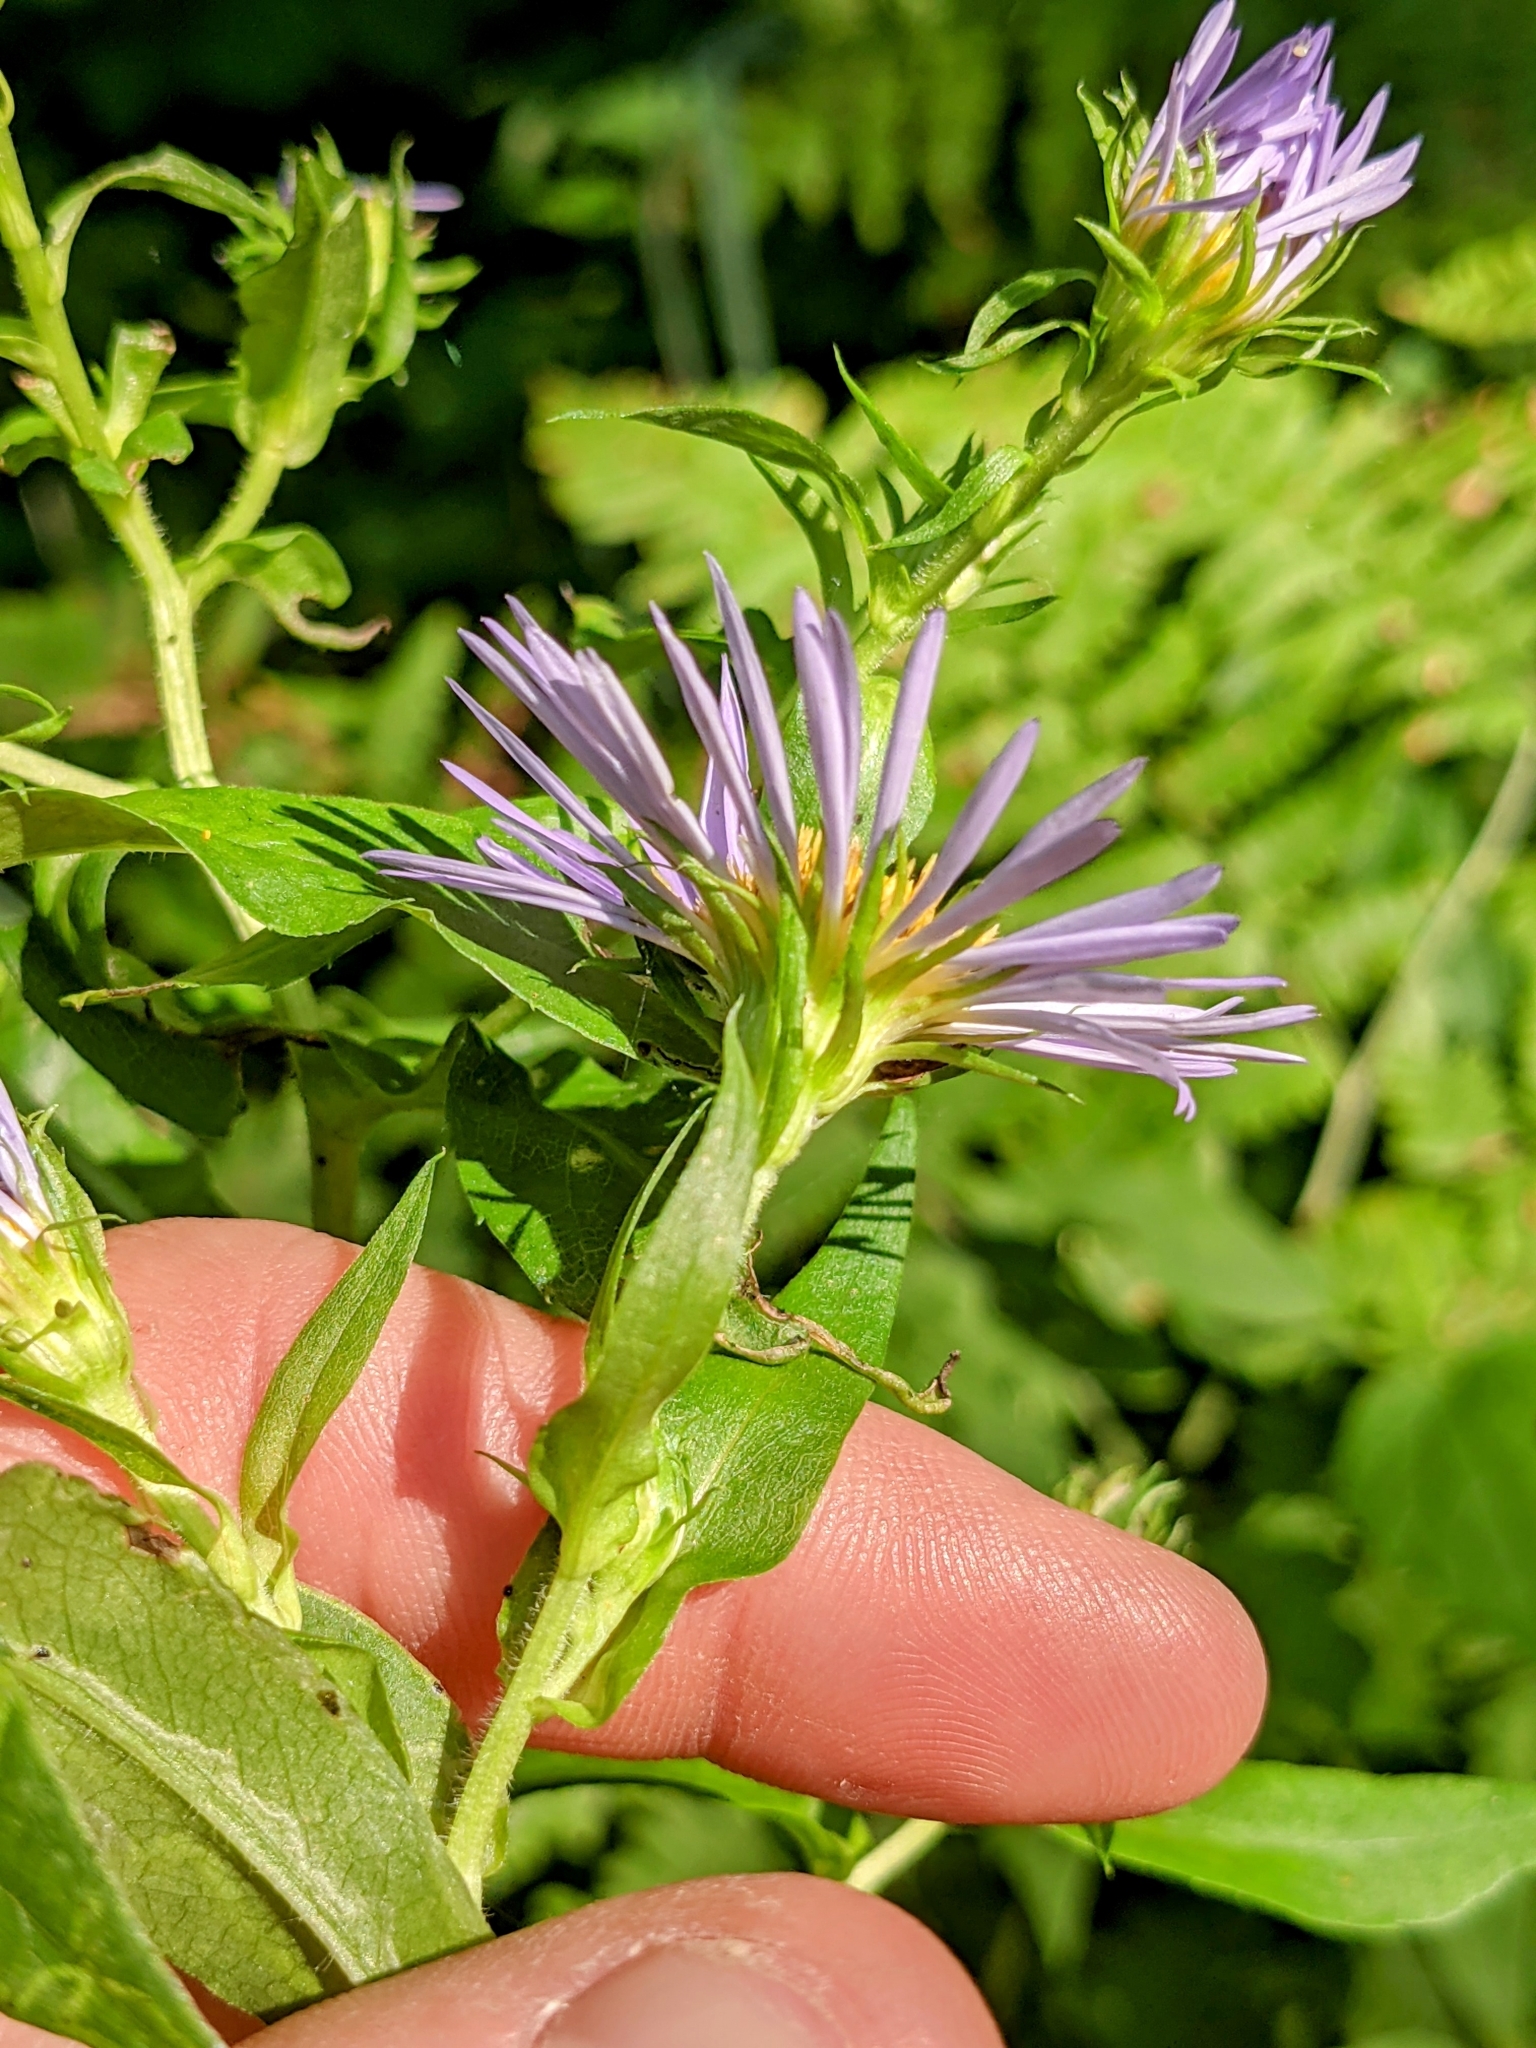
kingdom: Plantae
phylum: Tracheophyta
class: Magnoliopsida
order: Asterales
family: Asteraceae
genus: Symphyotrichum
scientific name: Symphyotrichum puniceum
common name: Bog aster
